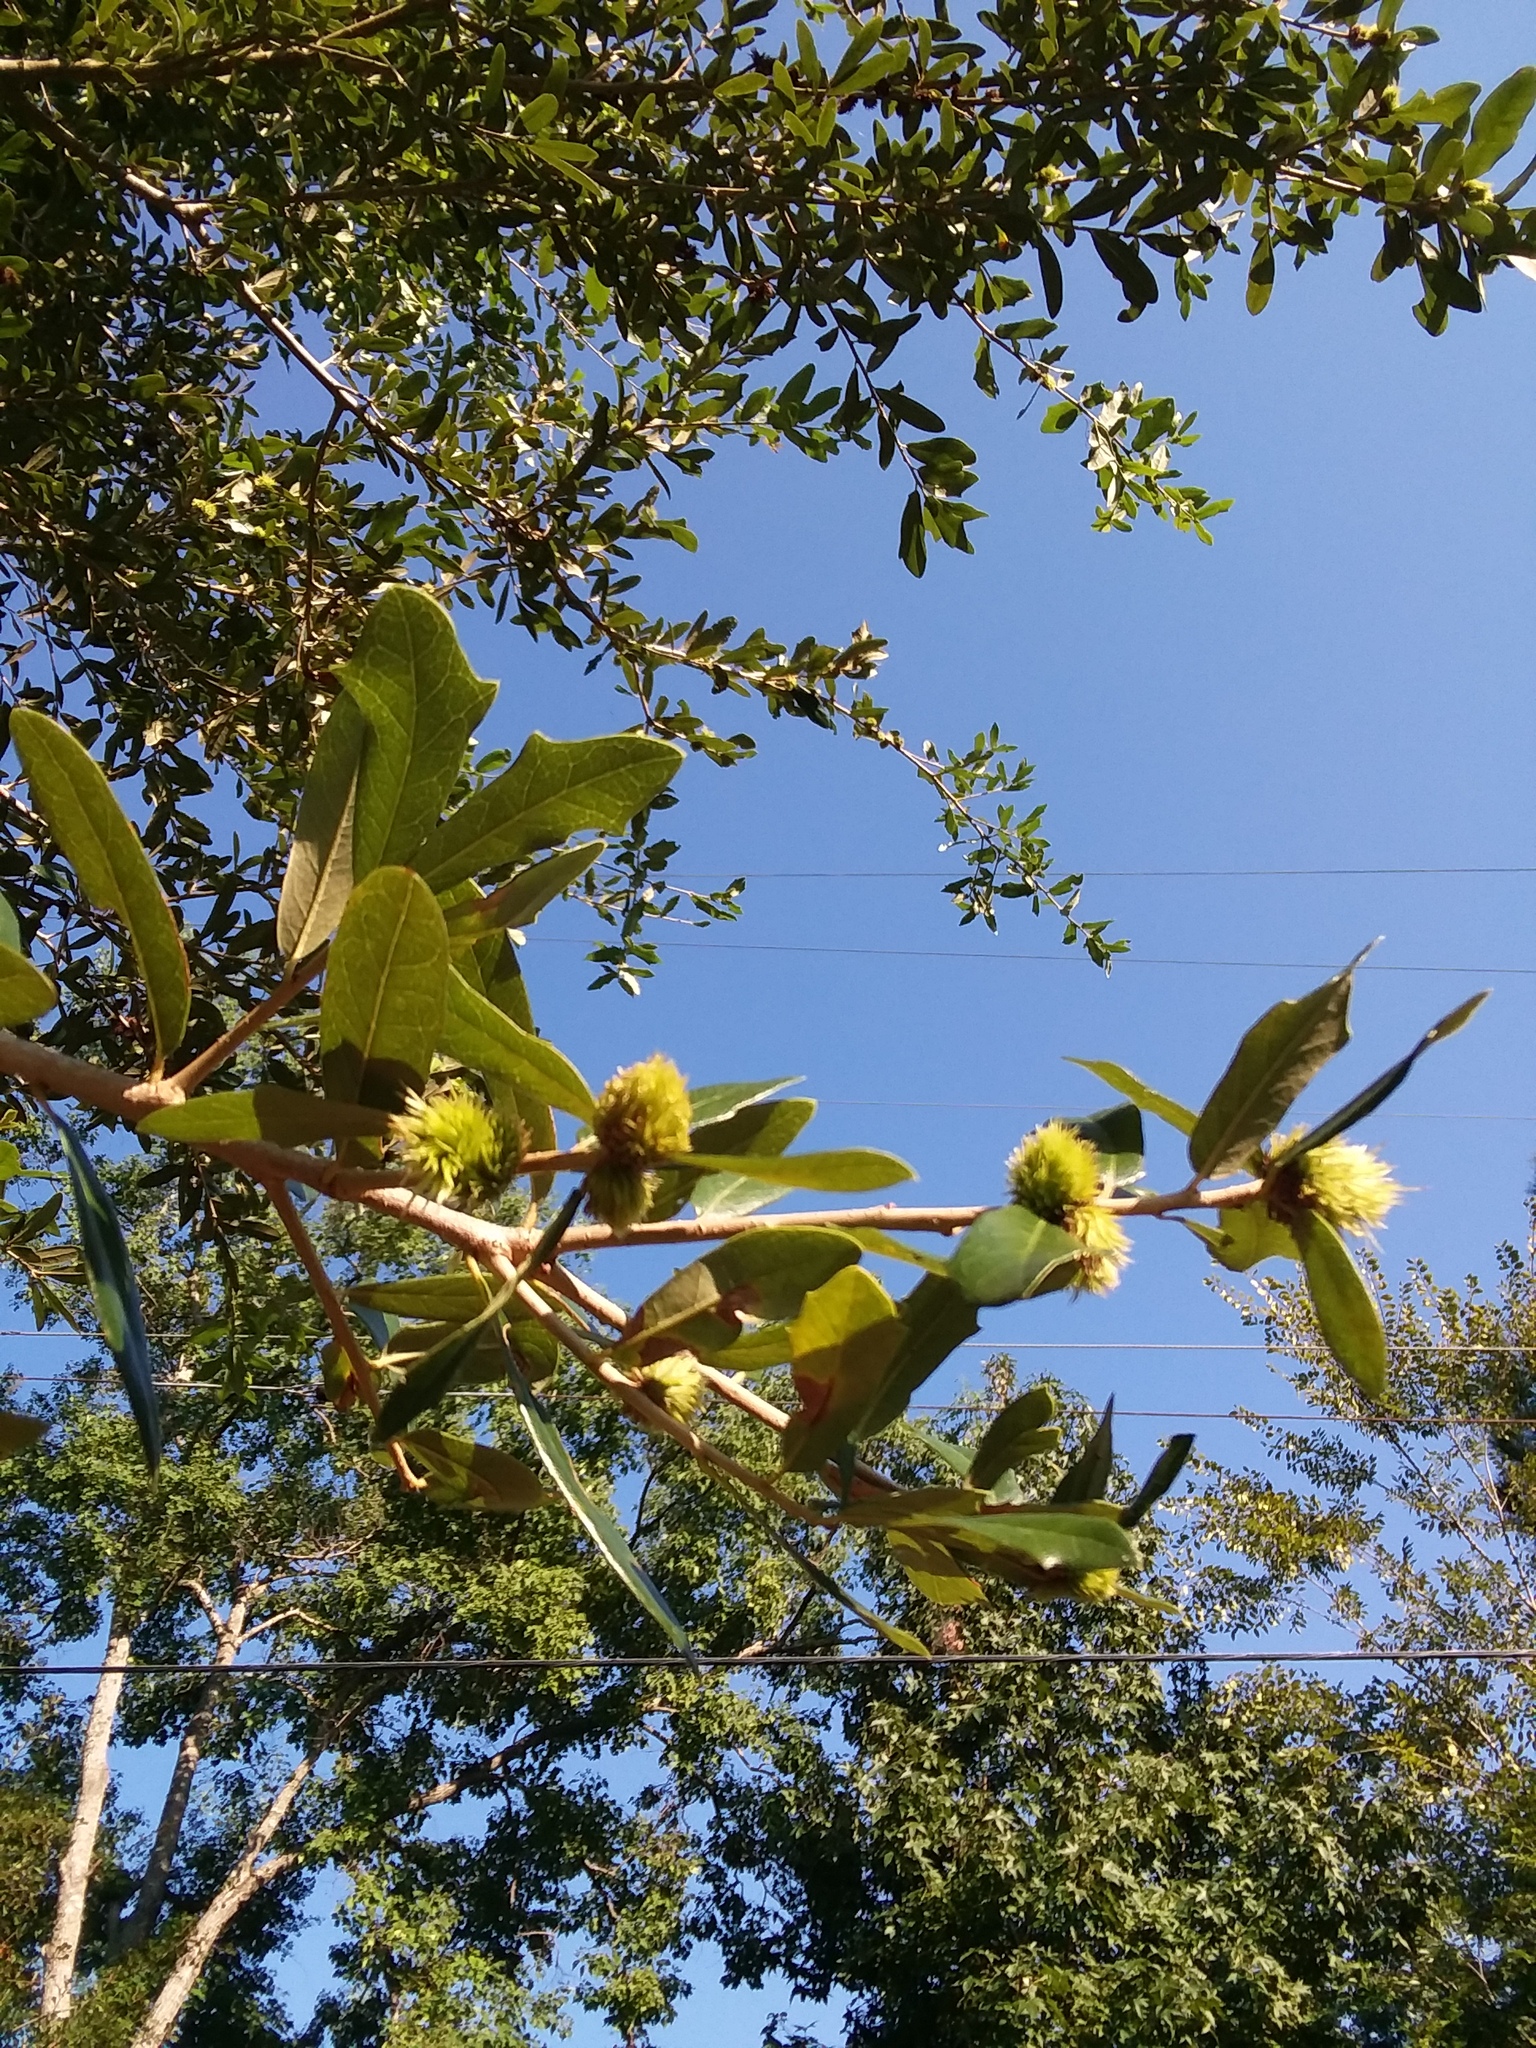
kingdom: Animalia
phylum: Arthropoda
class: Insecta
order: Hymenoptera
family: Cynipidae
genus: Andricus
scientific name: Andricus quercusfoliatus
